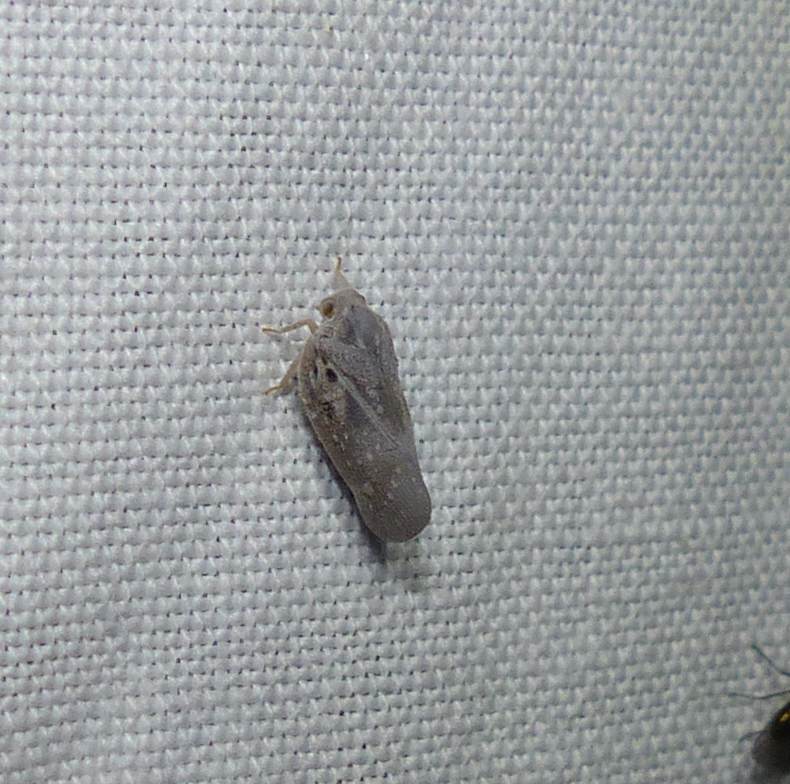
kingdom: Animalia
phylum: Arthropoda
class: Insecta
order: Hemiptera
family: Flatidae
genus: Metcalfa
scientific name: Metcalfa pruinosa
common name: Citrus flatid planthopper
